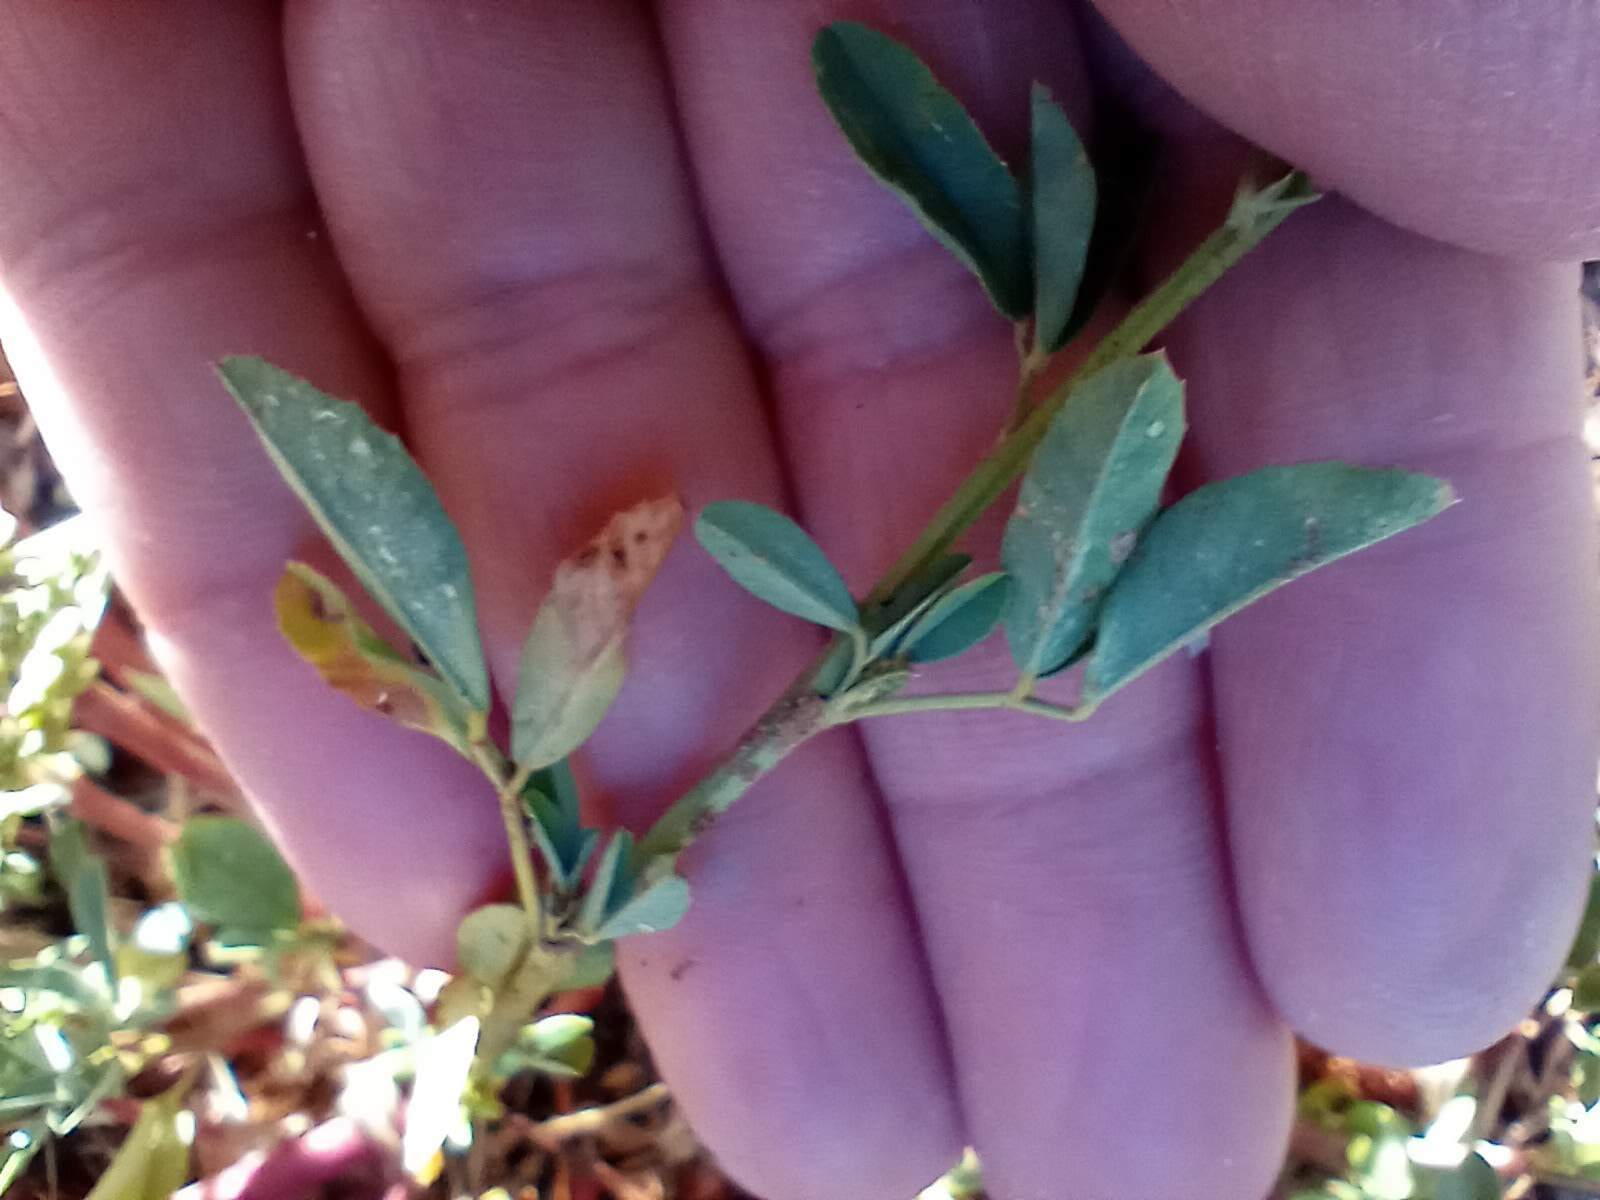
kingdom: Plantae
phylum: Tracheophyta
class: Magnoliopsida
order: Fabales
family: Fabaceae
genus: Melilotus
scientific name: Melilotus albus
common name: White melilot
